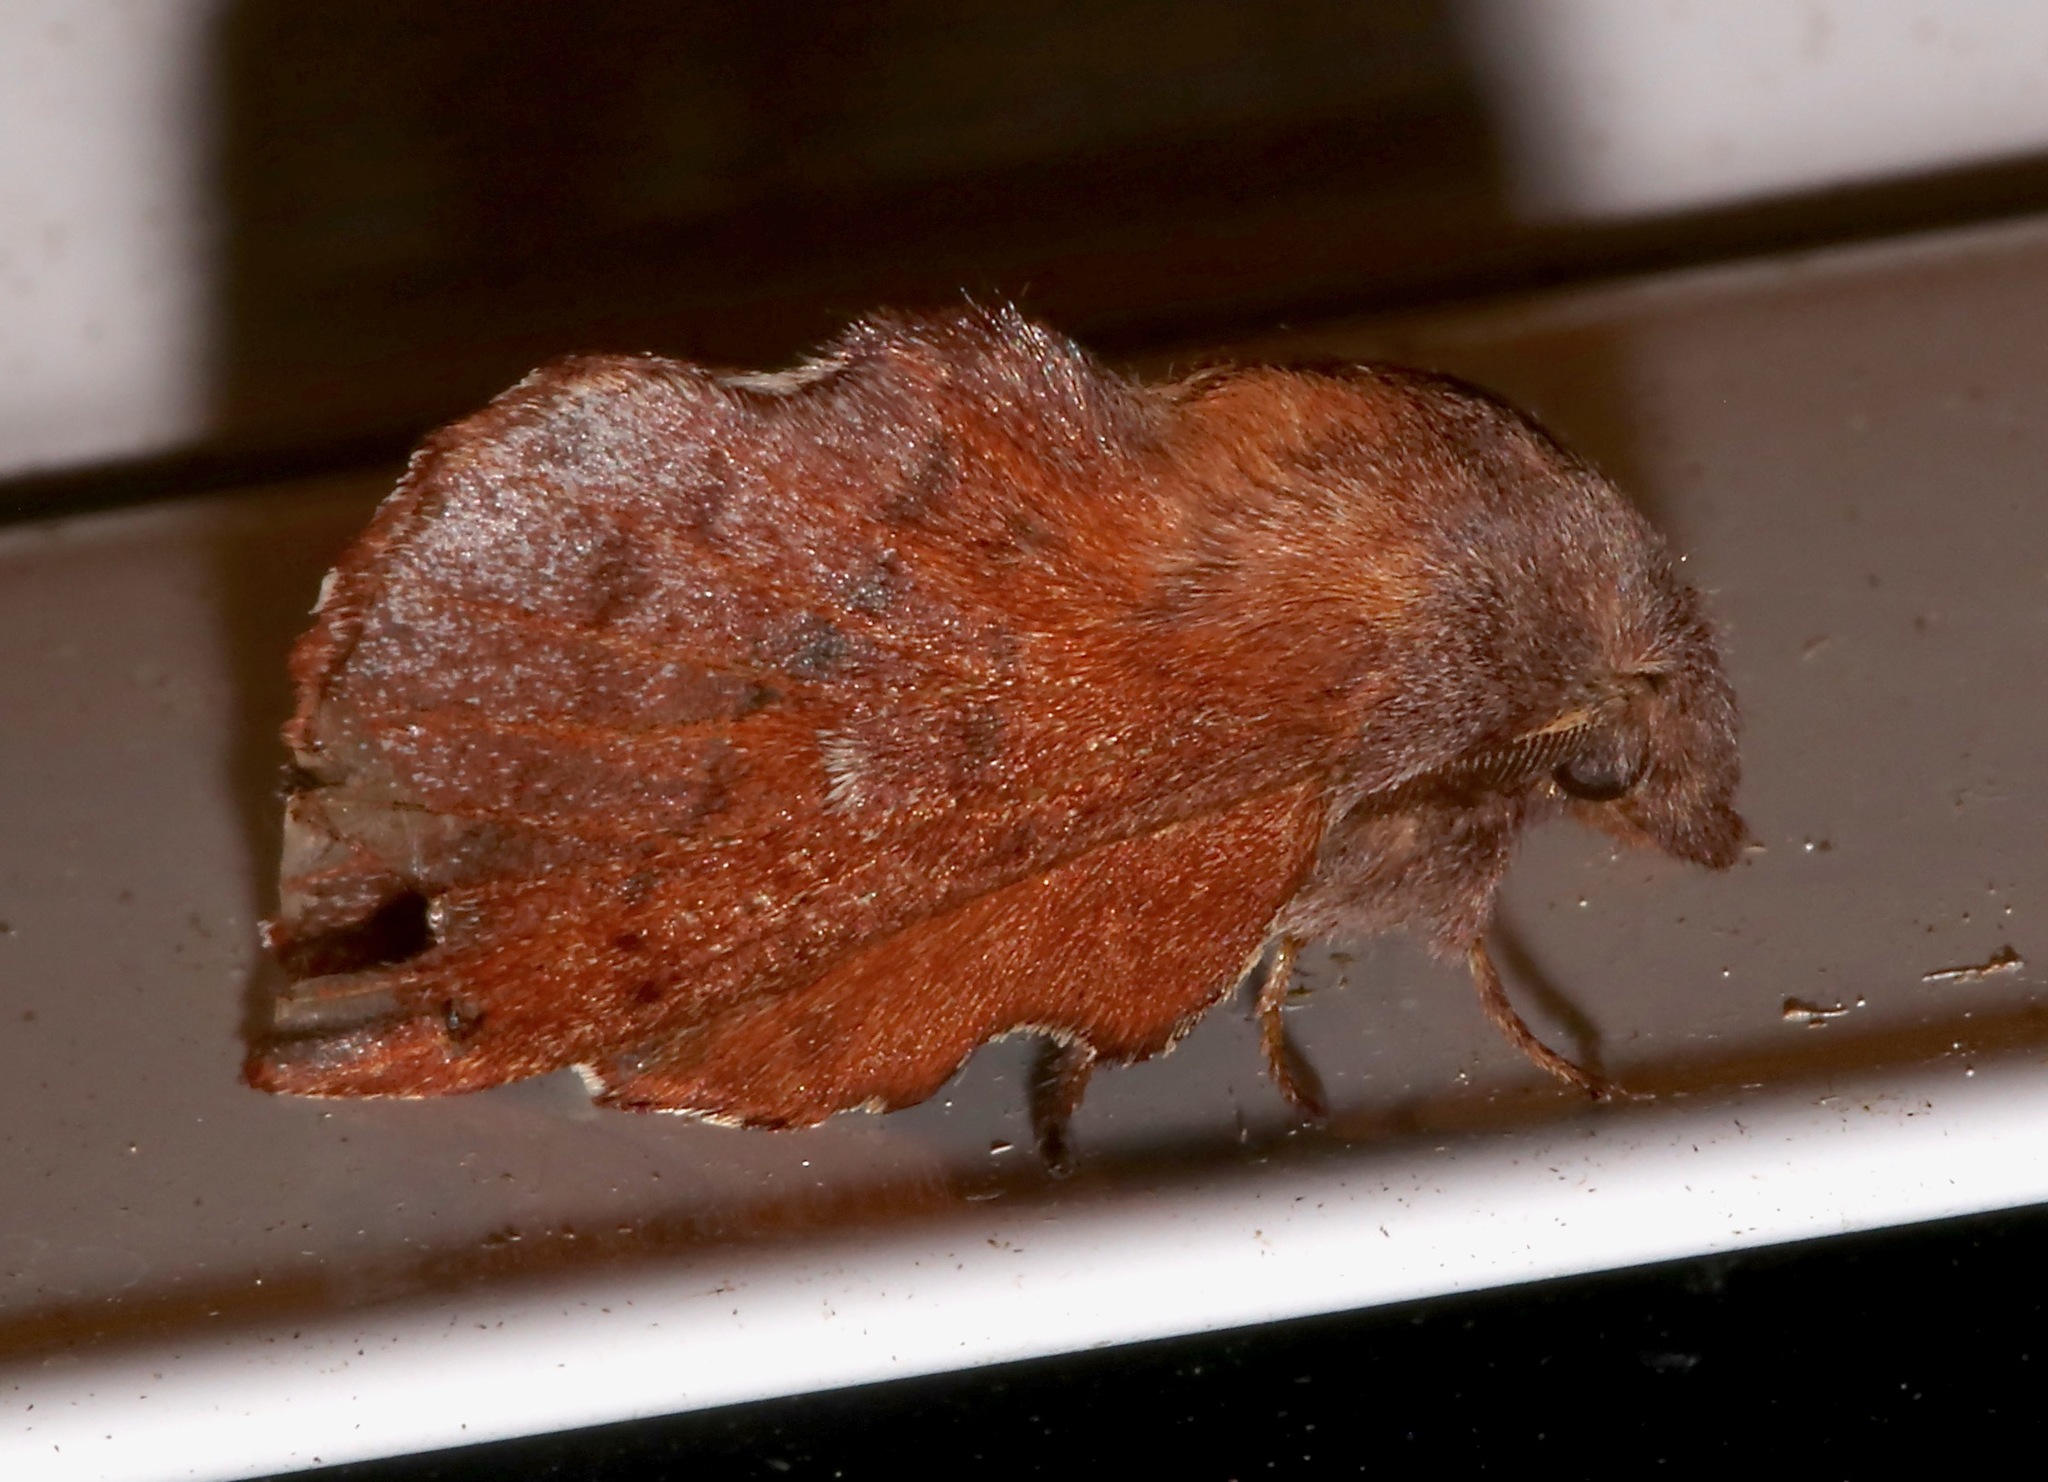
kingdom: Animalia
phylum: Arthropoda
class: Insecta
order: Lepidoptera
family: Lasiocampidae
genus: Phyllodesma
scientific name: Phyllodesma americana
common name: American lappet moth
